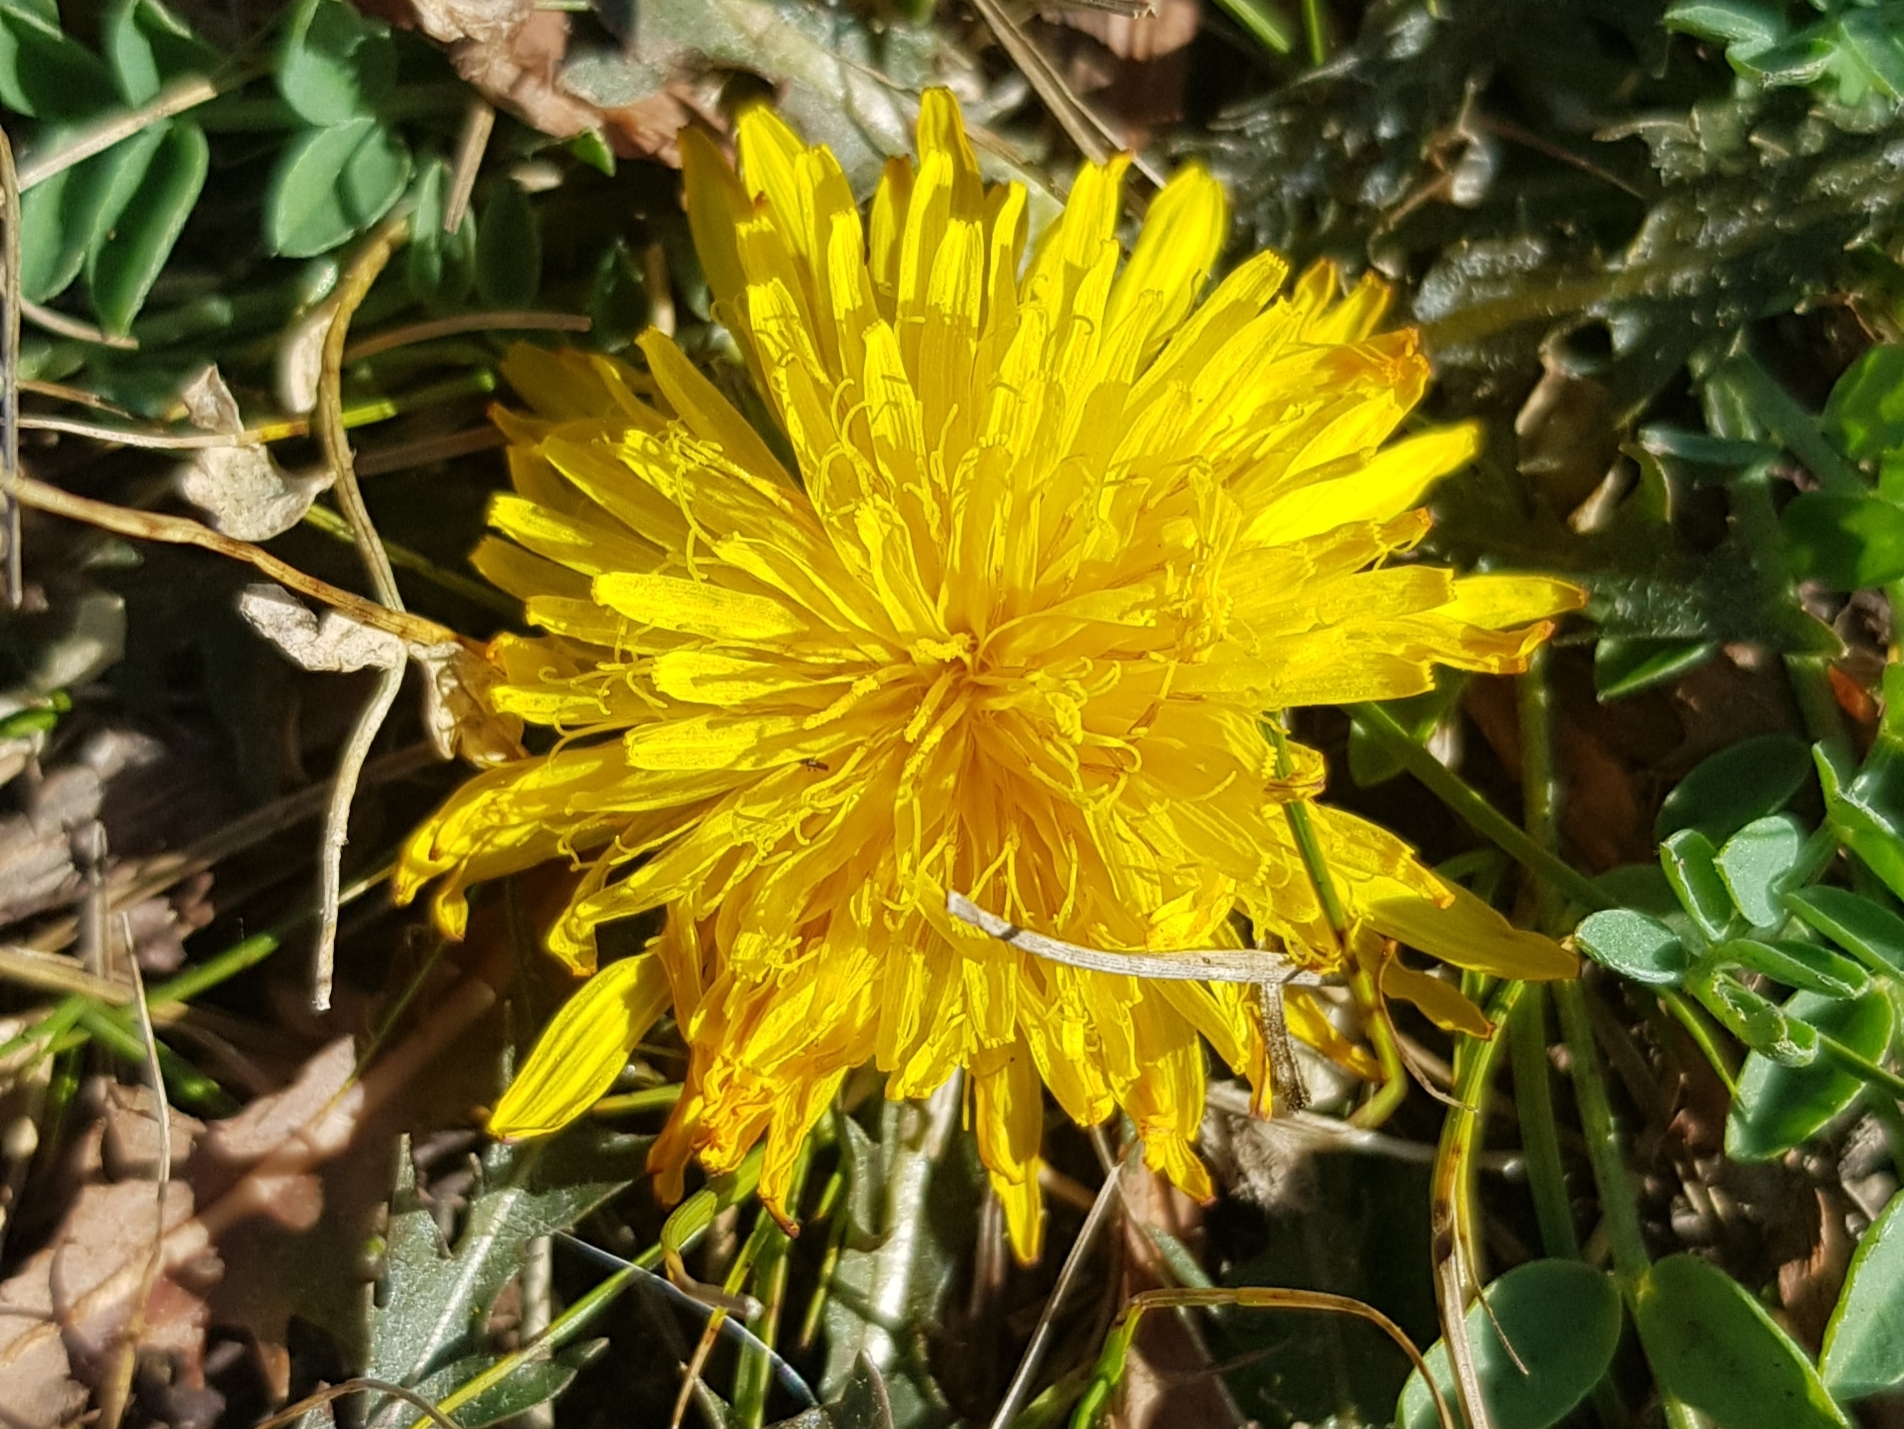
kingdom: Plantae
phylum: Tracheophyta
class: Magnoliopsida
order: Asterales
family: Asteraceae
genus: Taraxacum
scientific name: Taraxacum officinale
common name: Common dandelion
